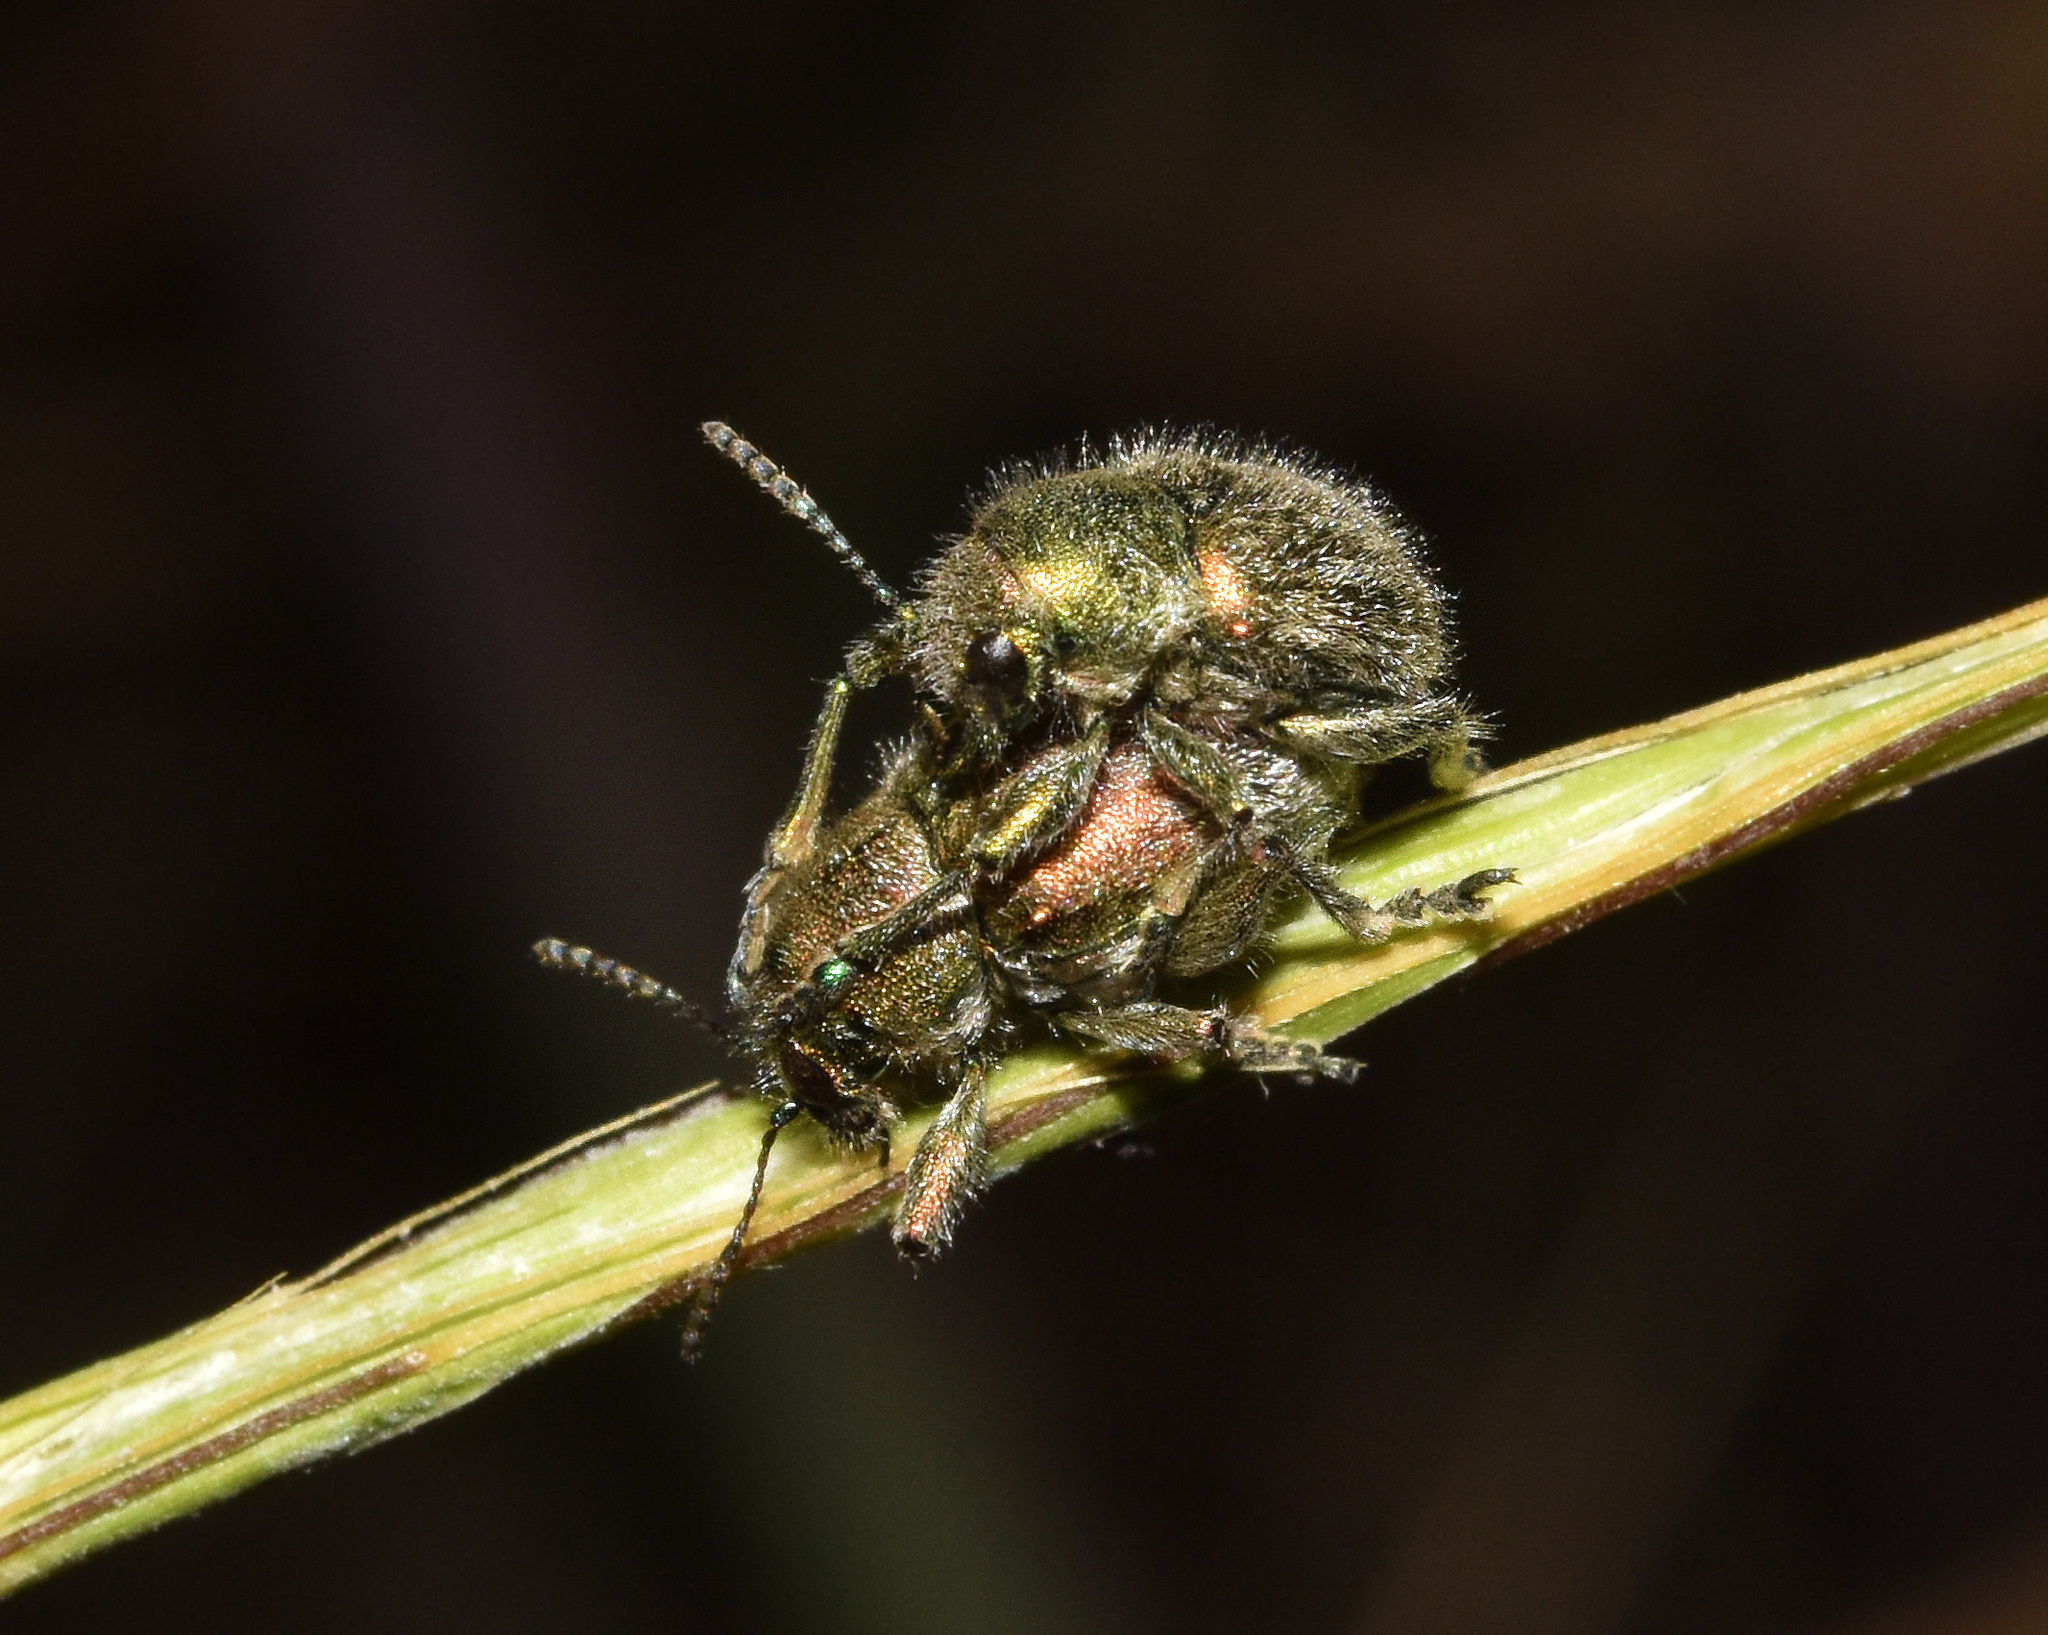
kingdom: Animalia
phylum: Arthropoda
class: Insecta
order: Coleoptera
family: Chrysomelidae
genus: Macrocoma
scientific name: Macrocoma
